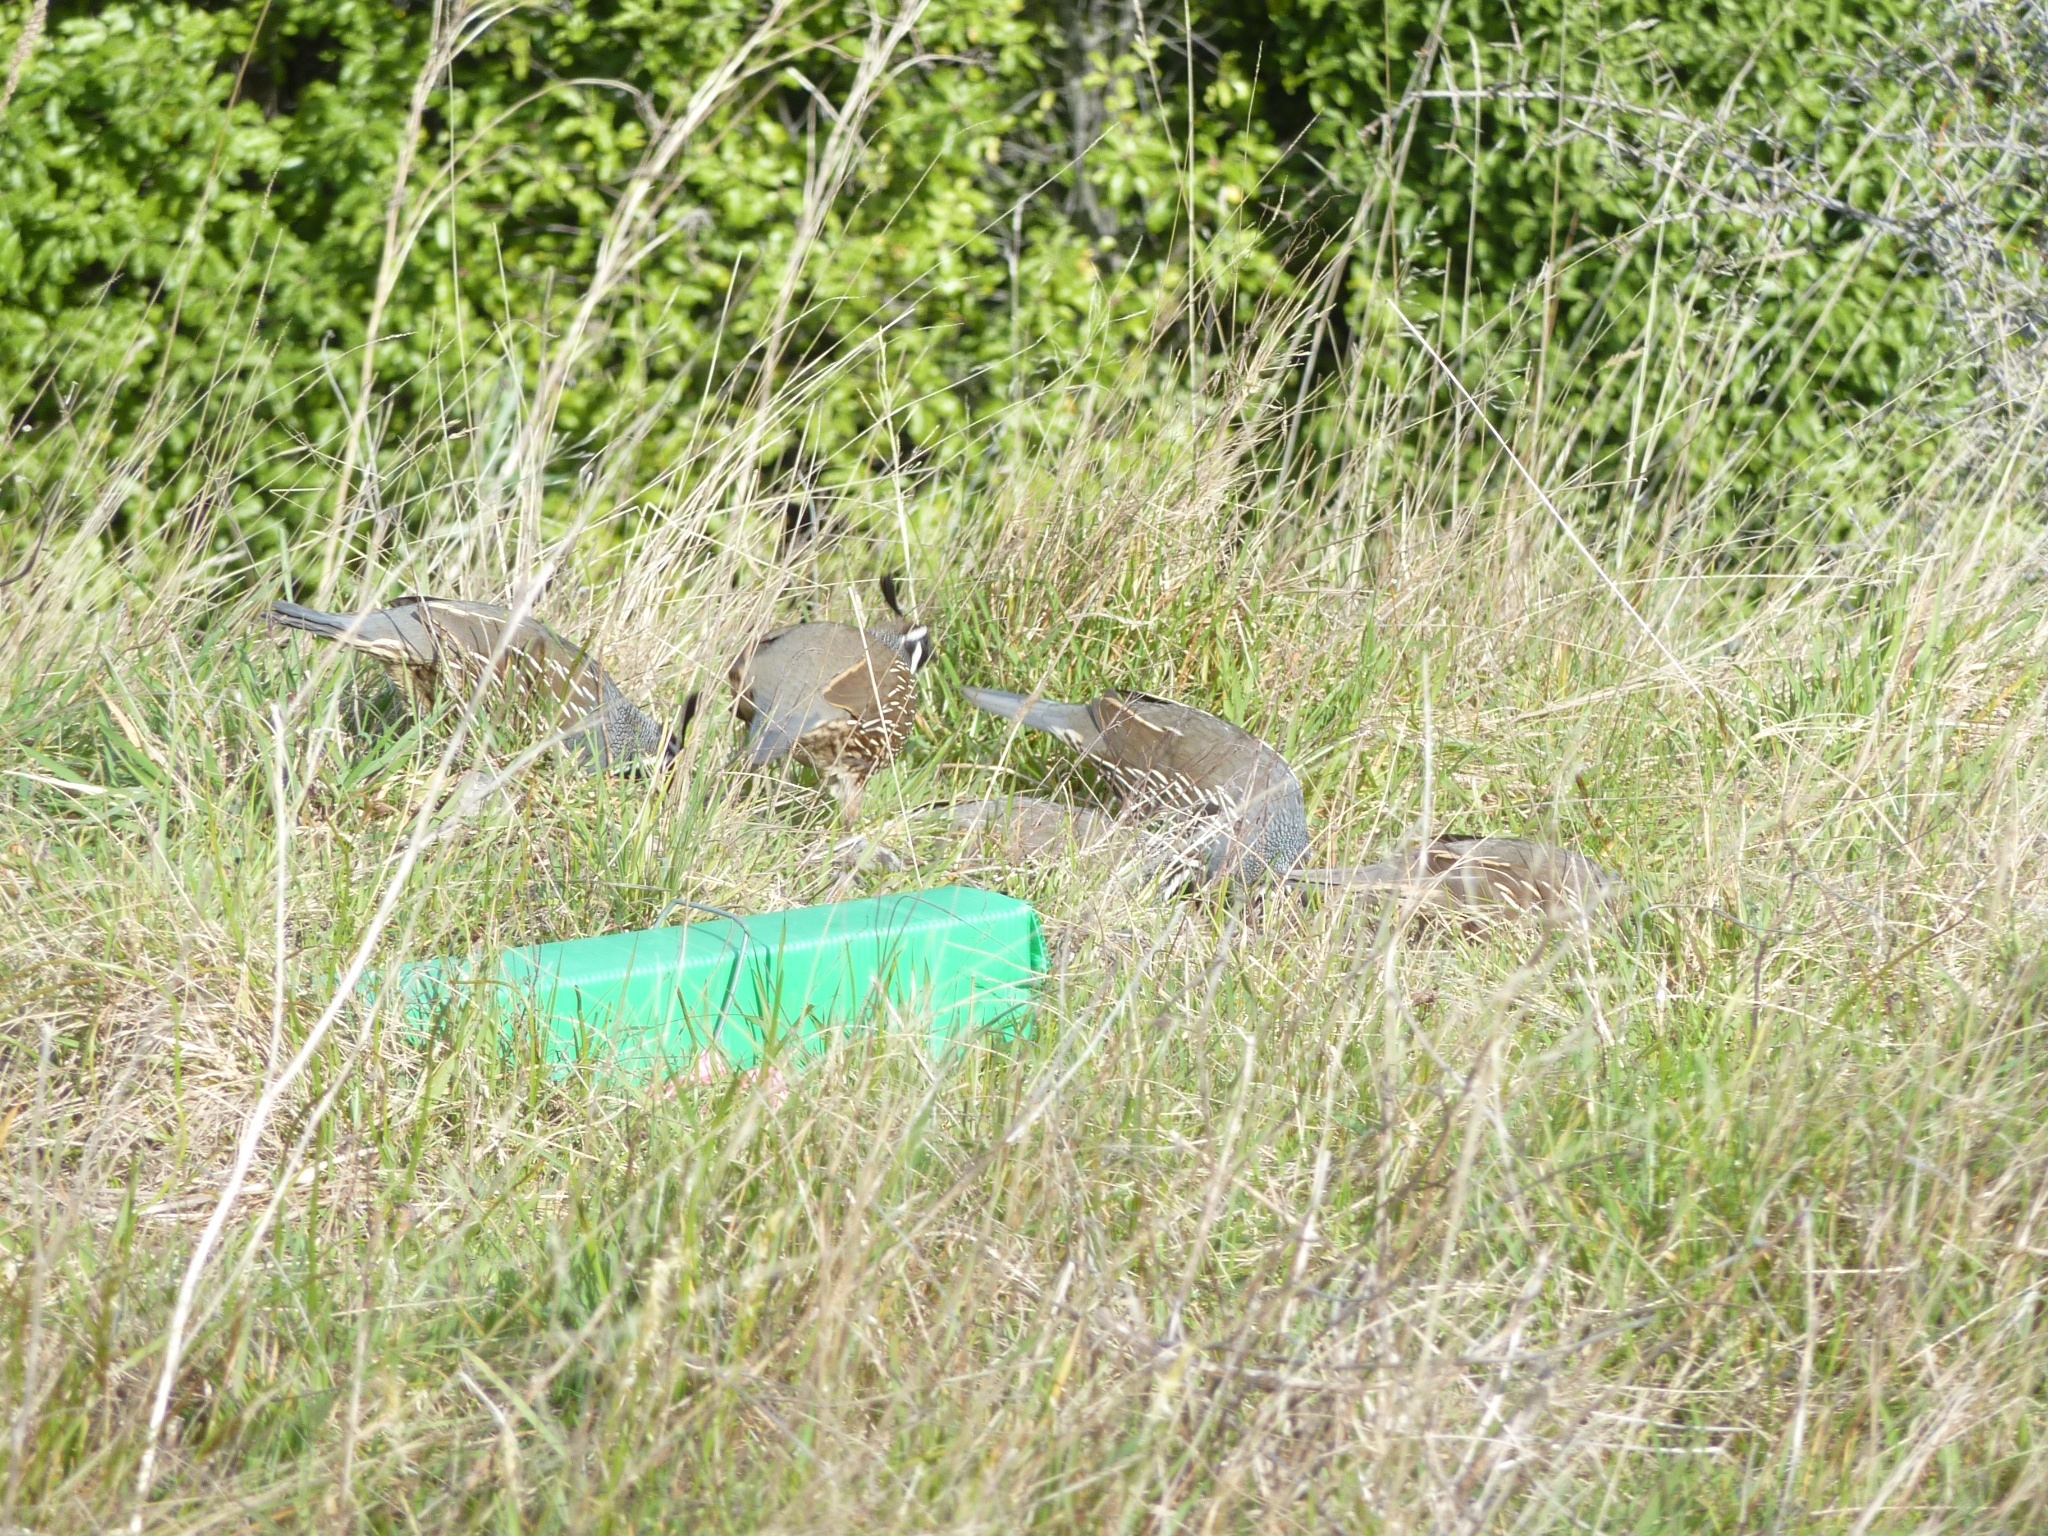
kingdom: Animalia
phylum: Chordata
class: Aves
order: Galliformes
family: Odontophoridae
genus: Callipepla
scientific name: Callipepla californica
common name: California quail
